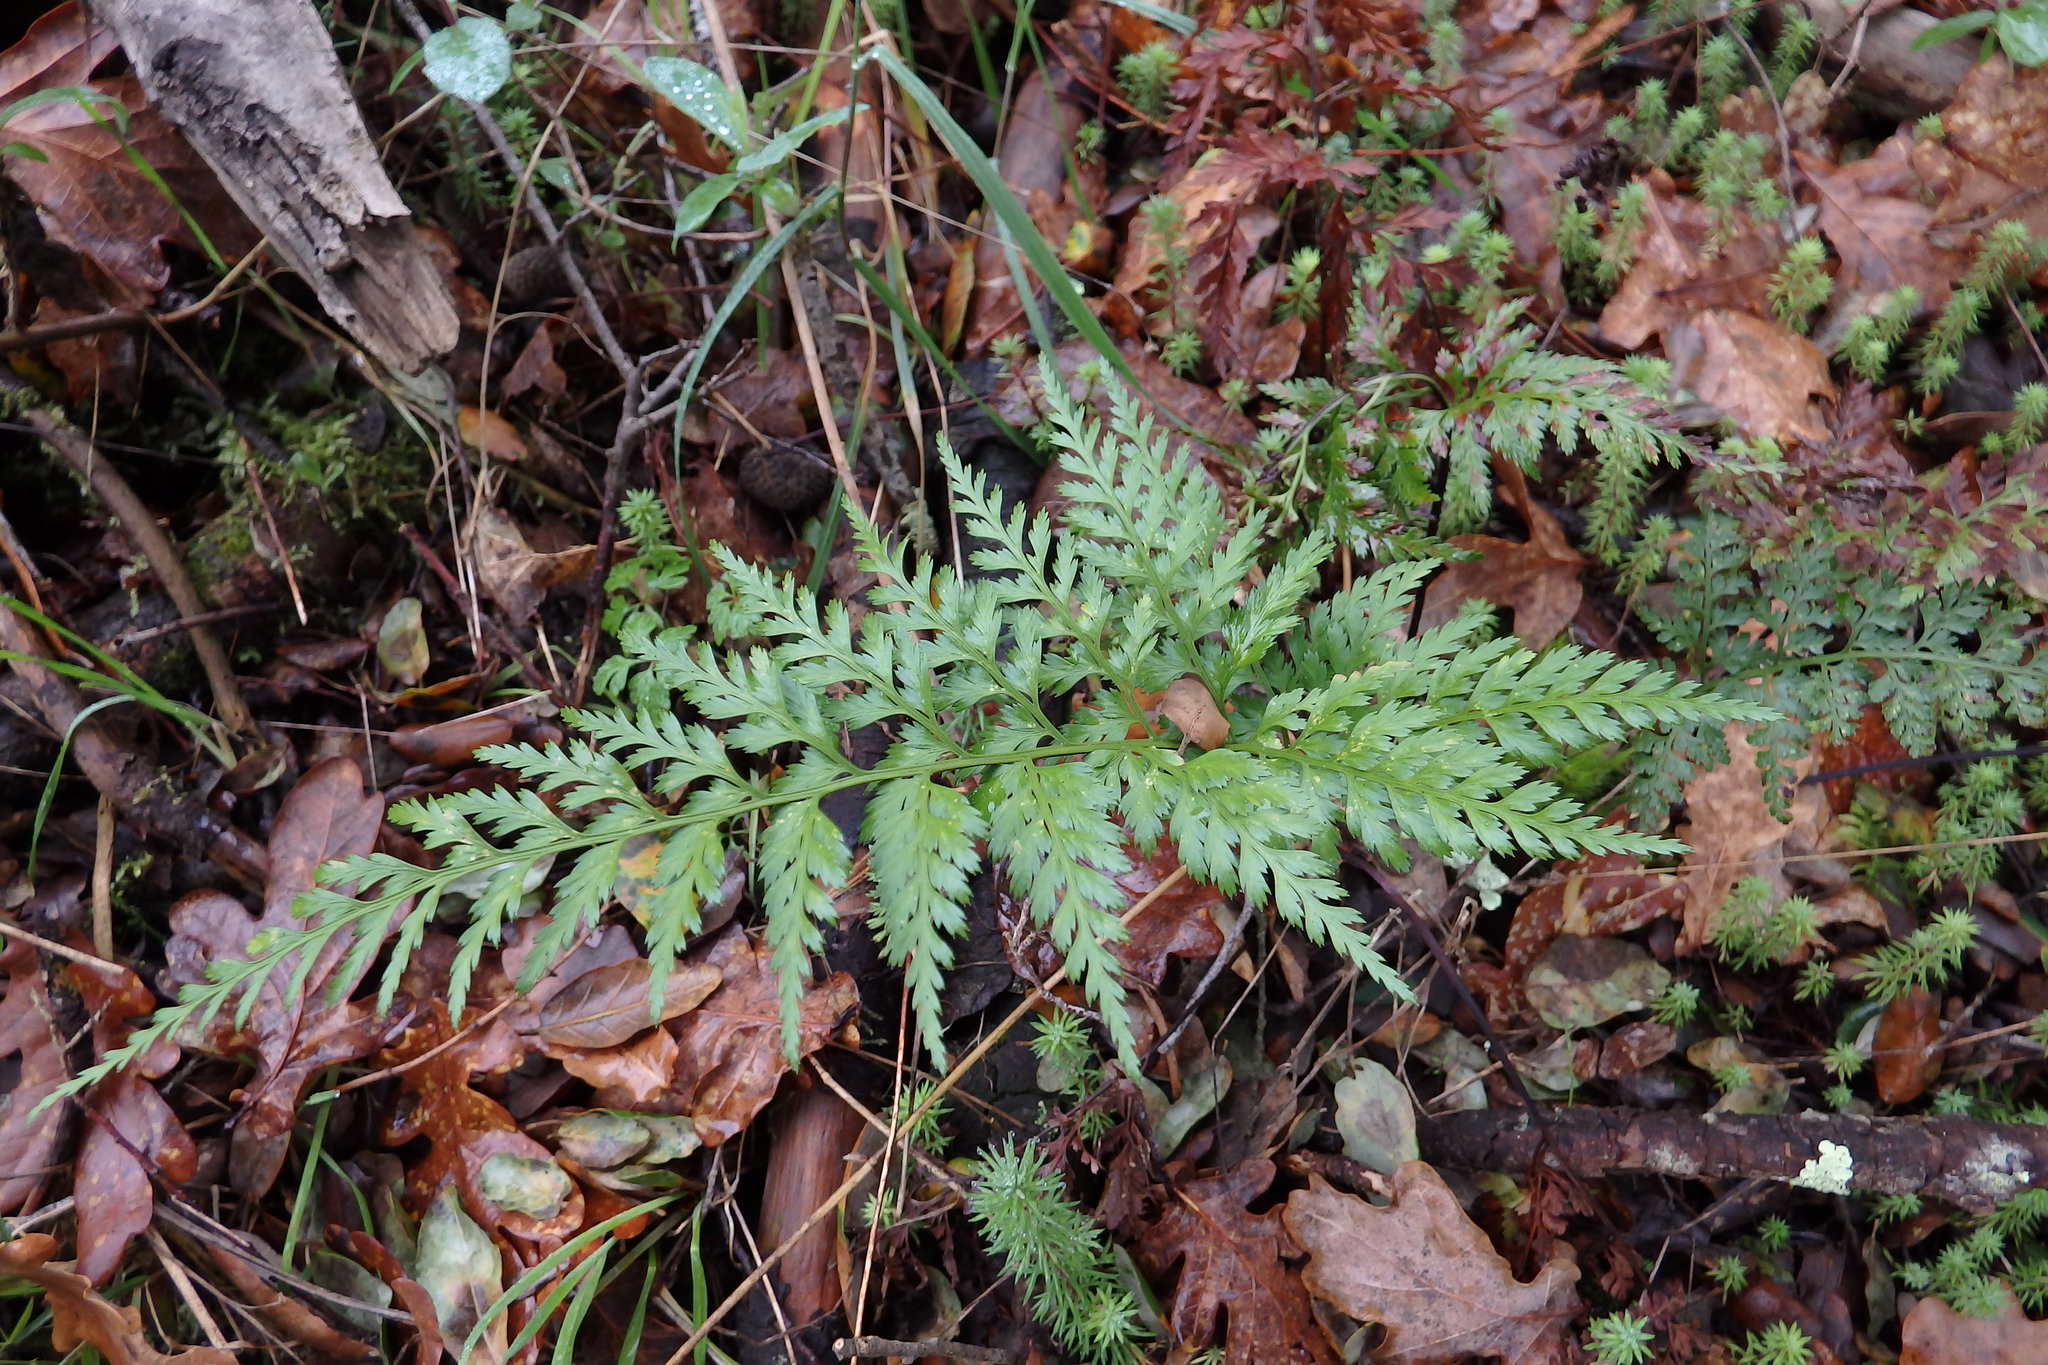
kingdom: Plantae
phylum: Tracheophyta
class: Polypodiopsida
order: Polypodiales
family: Aspleniaceae
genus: Asplenium
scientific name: Asplenium onopteris
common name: Irish spleenwort
